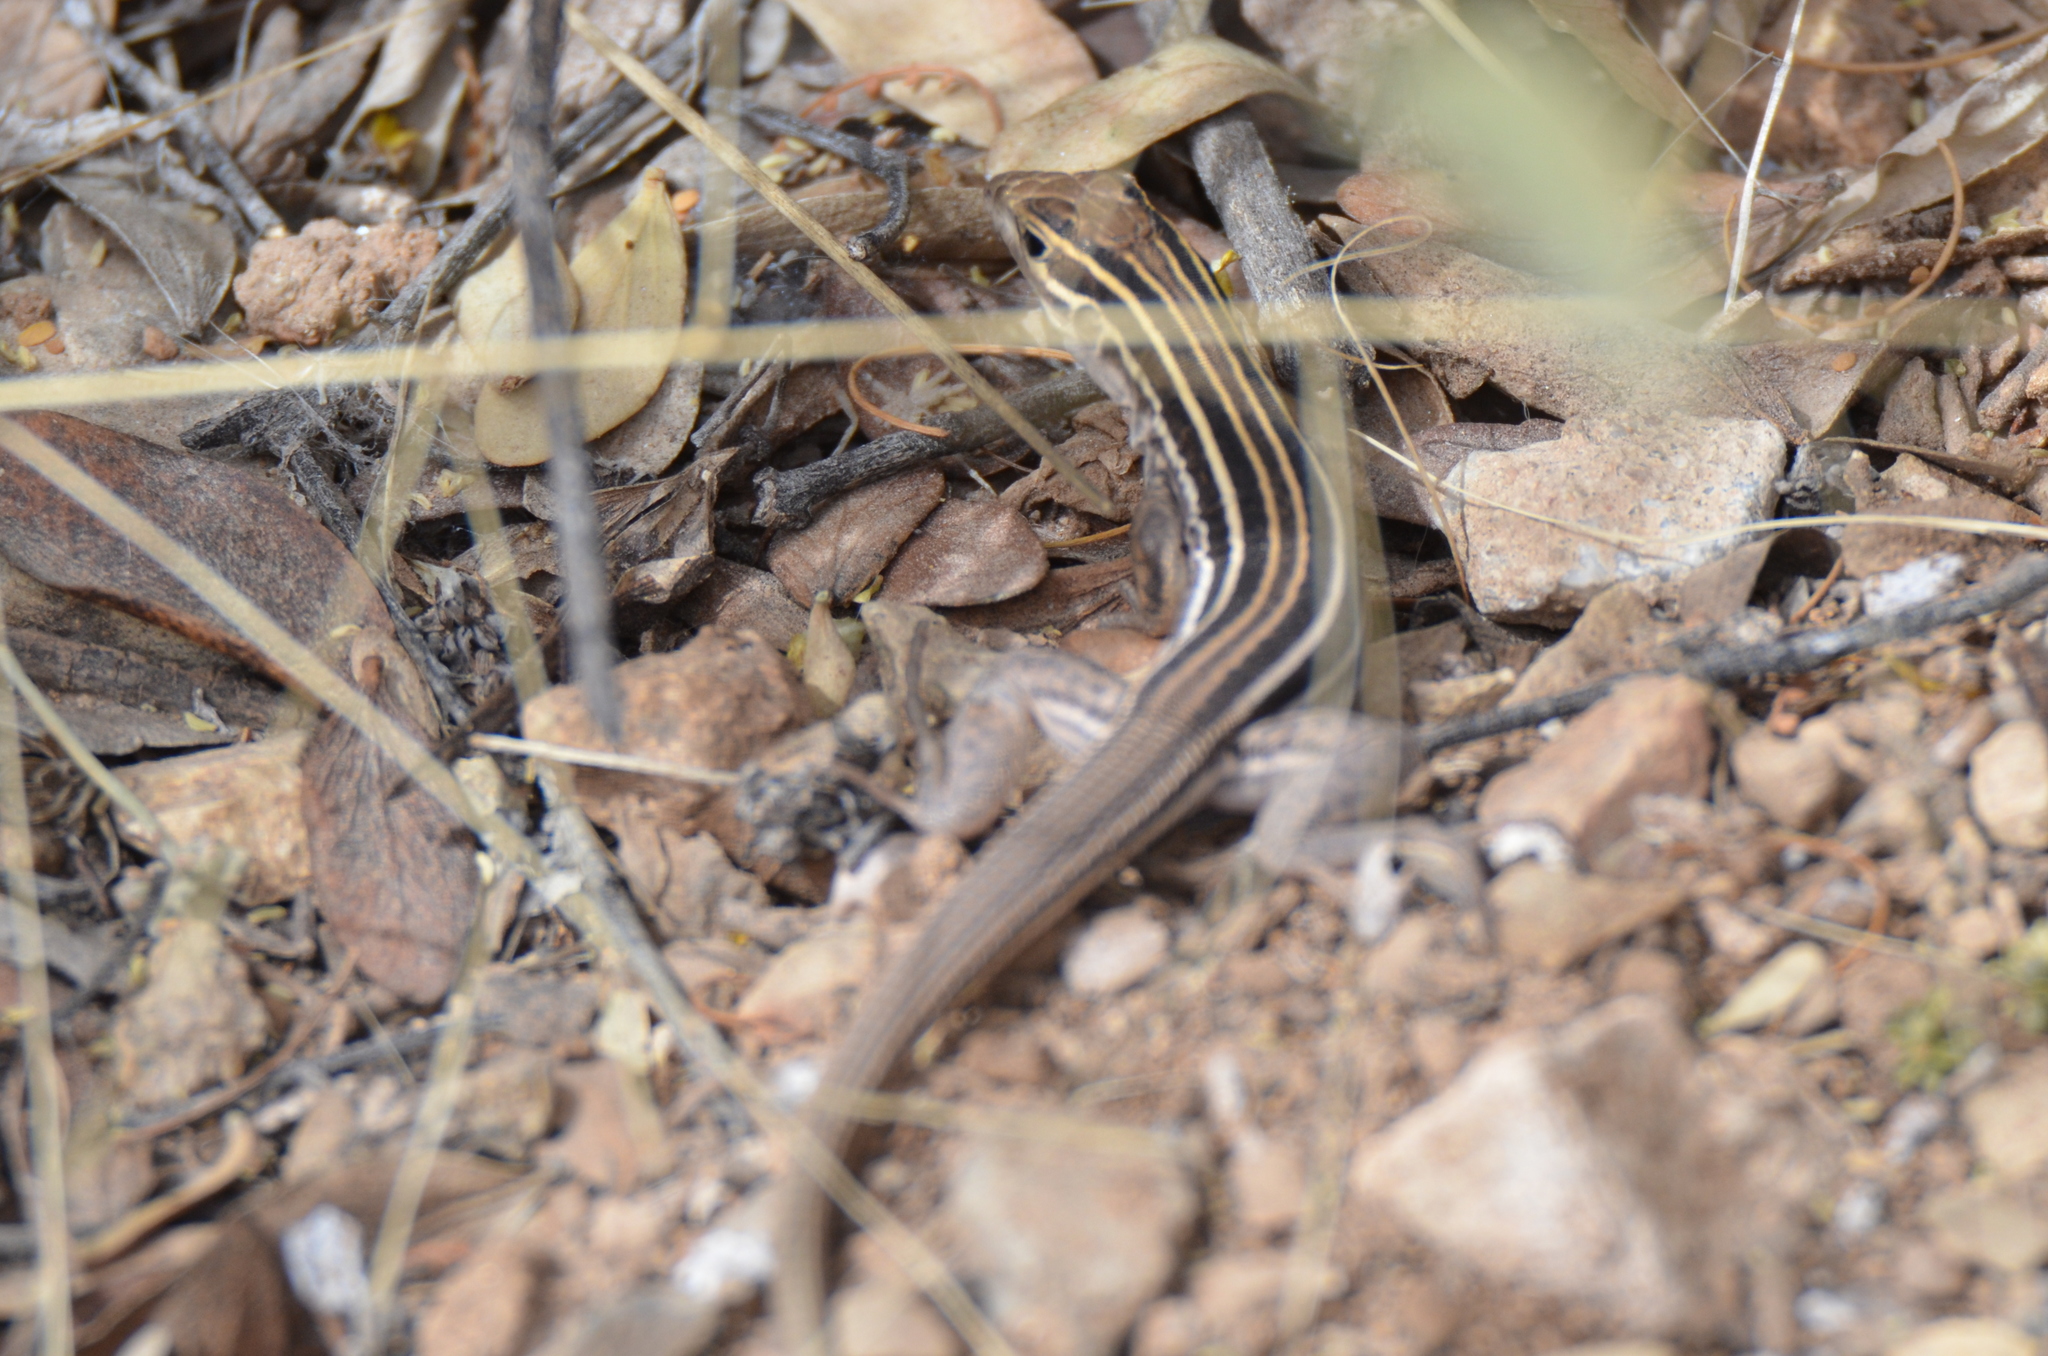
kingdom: Animalia
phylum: Chordata
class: Squamata
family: Teiidae
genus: Aspidoscelis
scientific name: Aspidoscelis sonorae
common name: Sonoran spotted whiptail
